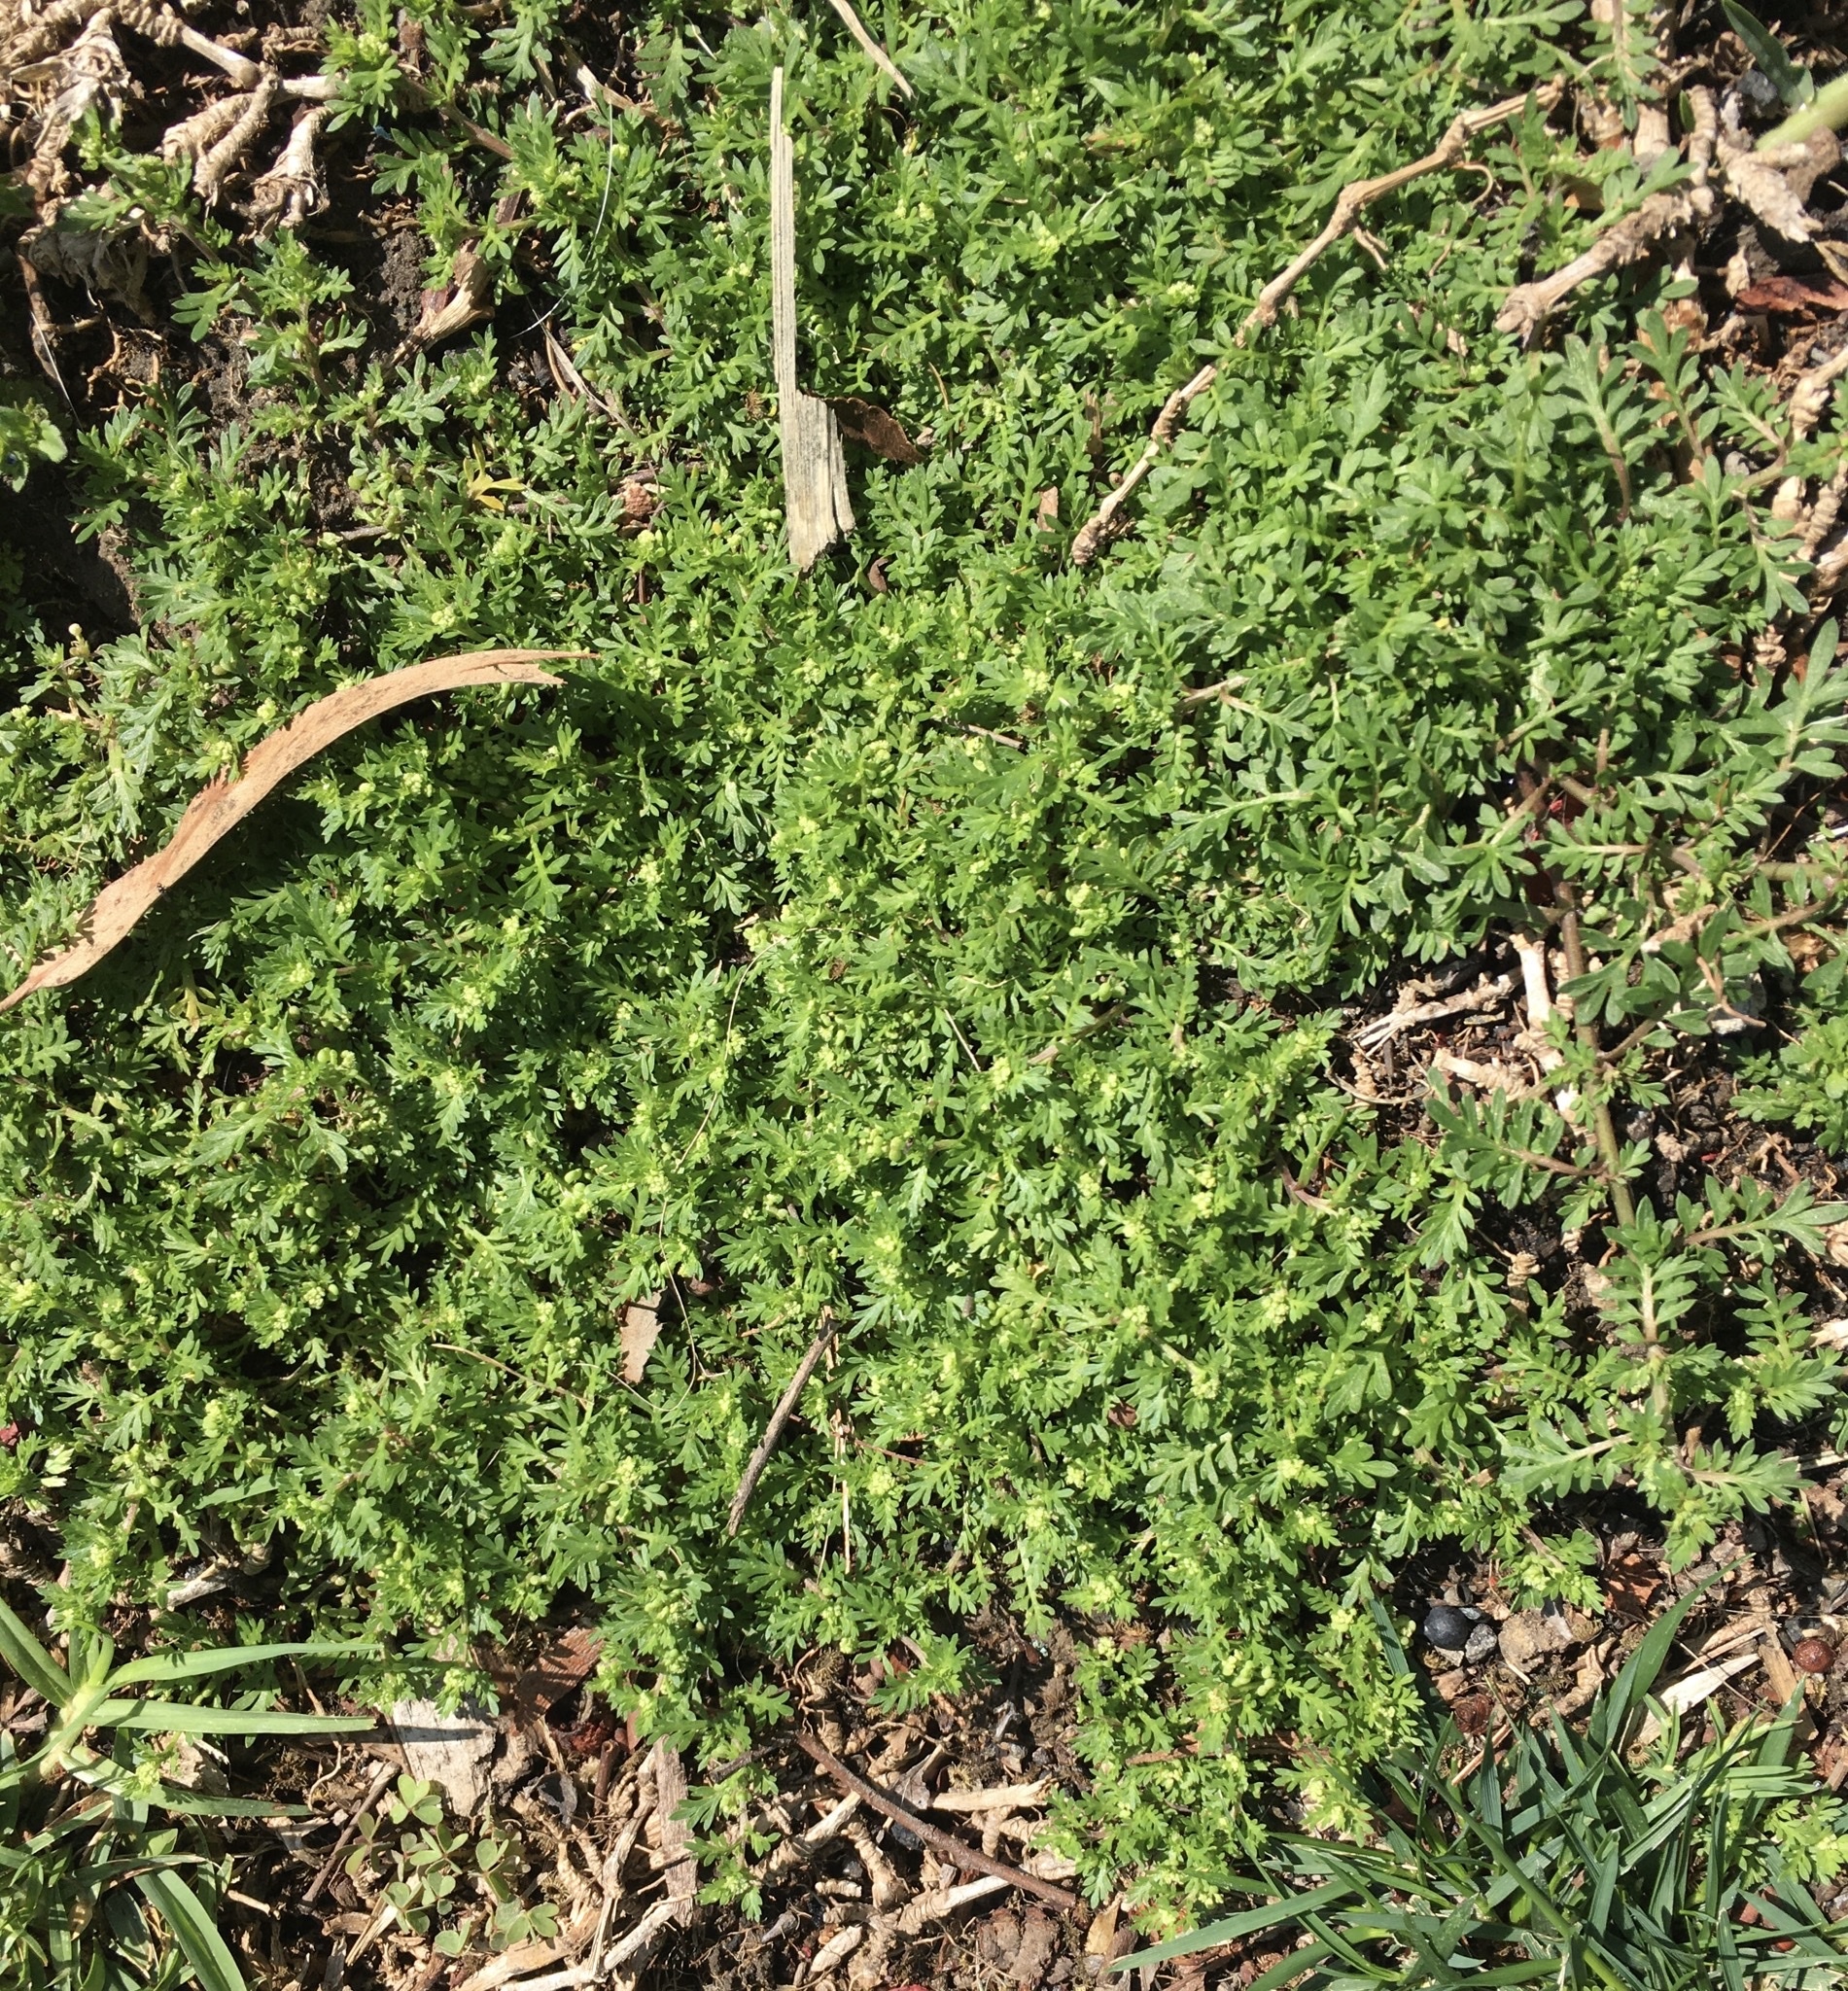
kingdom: Plantae
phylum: Tracheophyta
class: Magnoliopsida
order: Brassicales
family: Brassicaceae
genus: Lepidium
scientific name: Lepidium didymum
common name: Lesser swinecress
